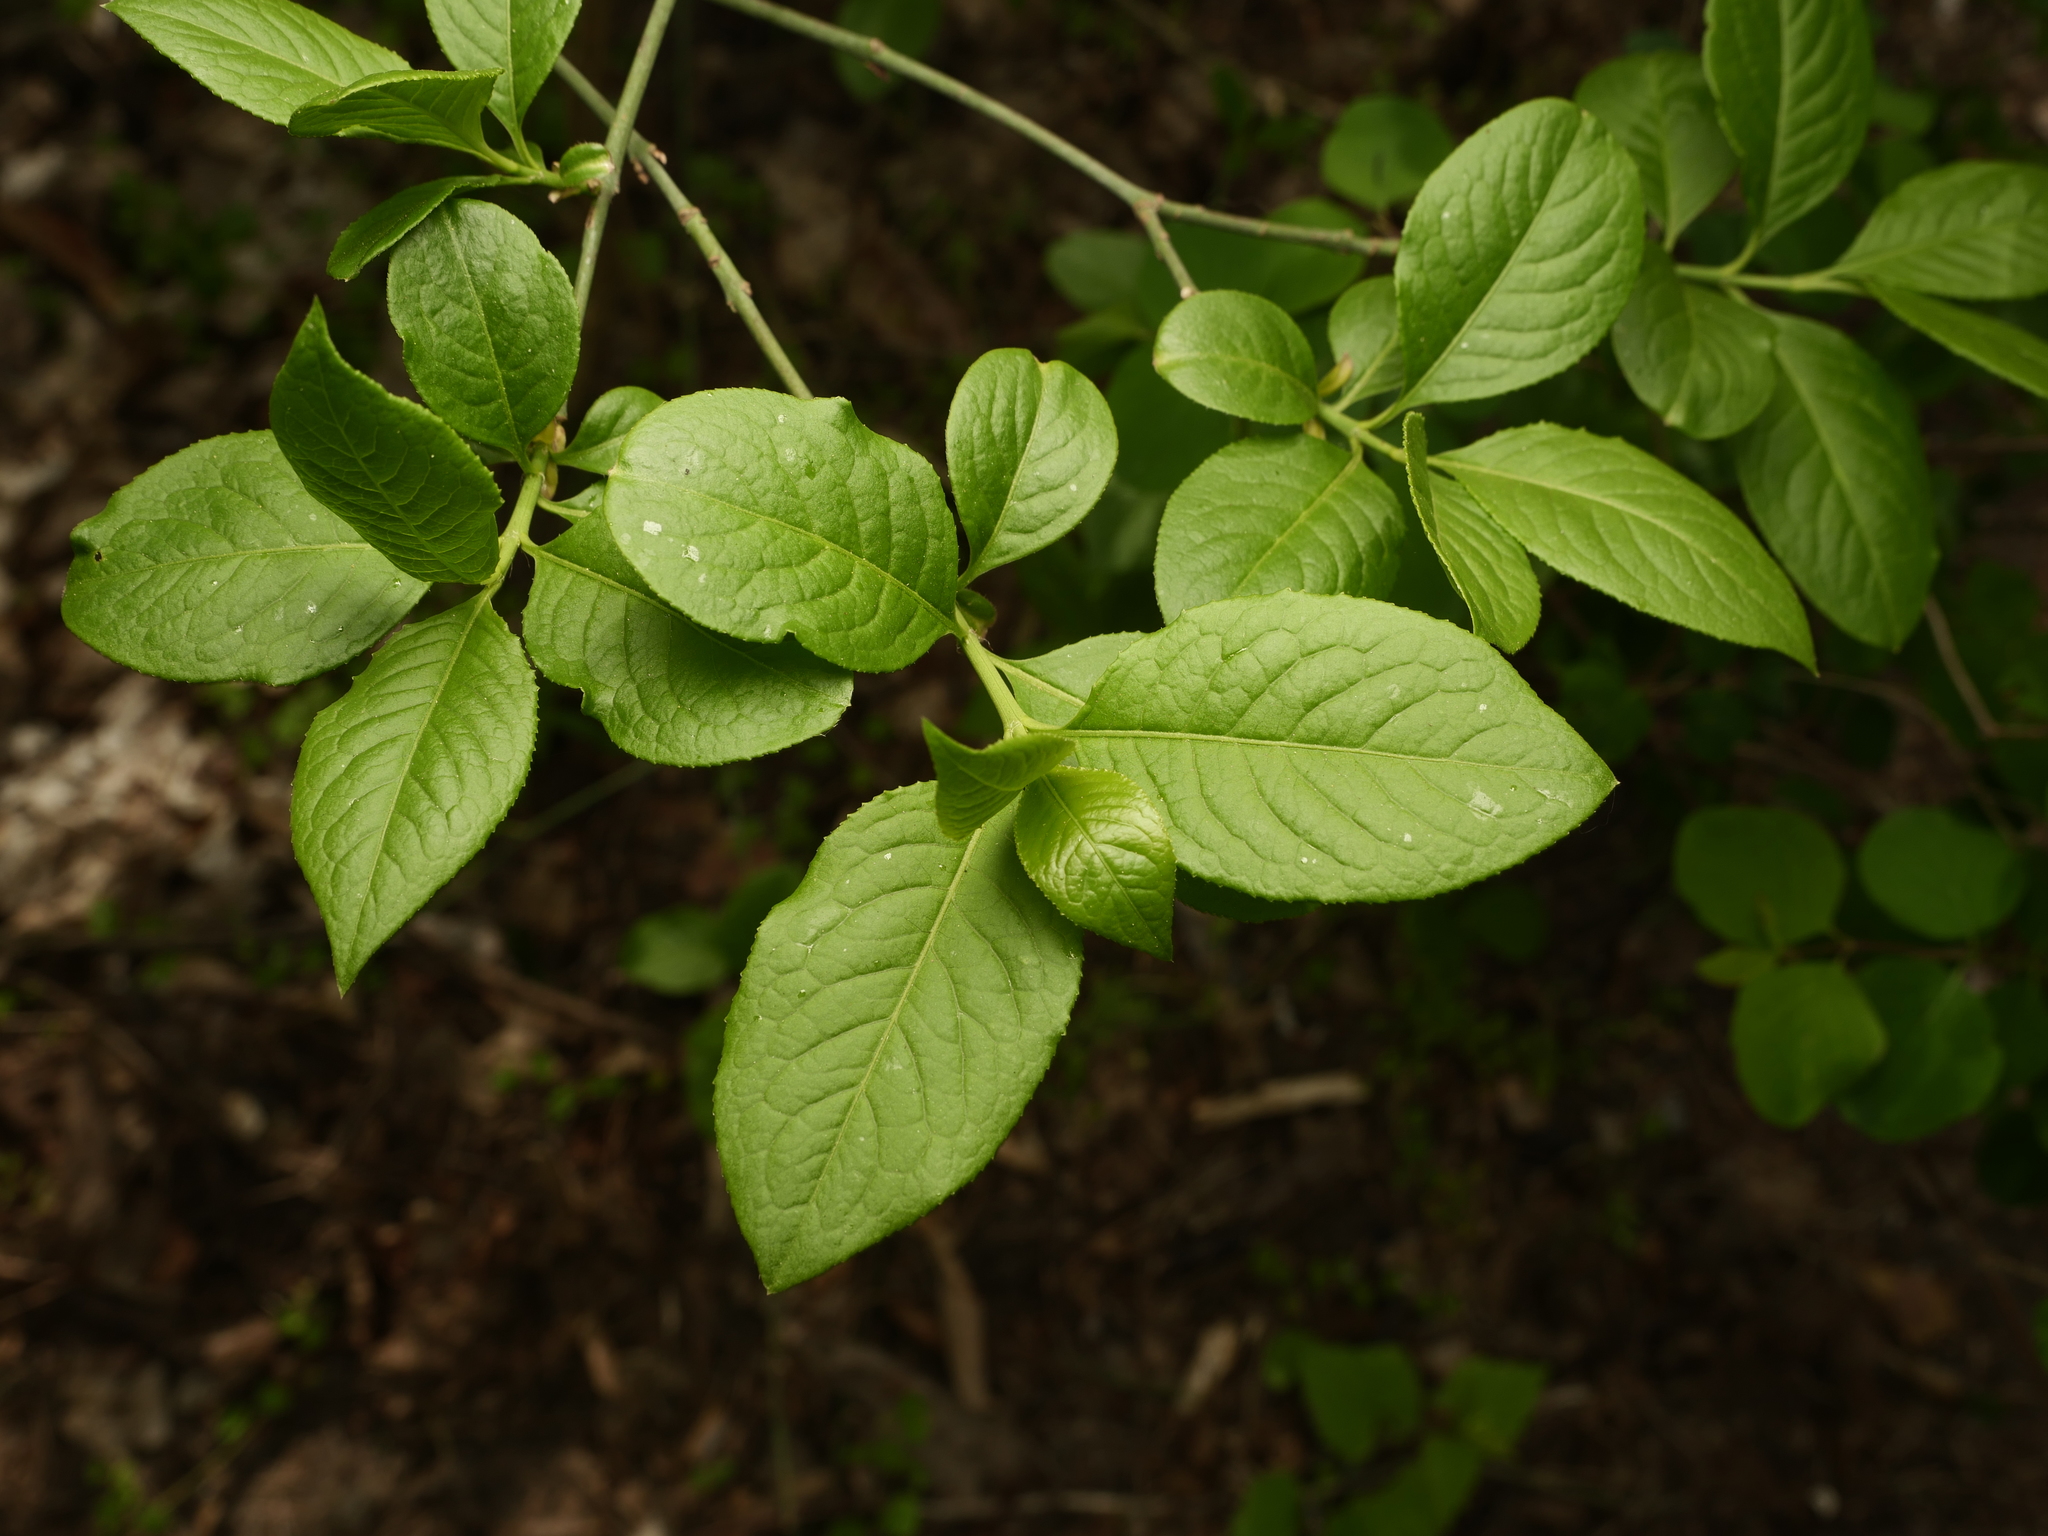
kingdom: Plantae
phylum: Tracheophyta
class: Magnoliopsida
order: Celastrales
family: Celastraceae
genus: Euonymus
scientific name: Euonymus europaeus
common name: Spindle
